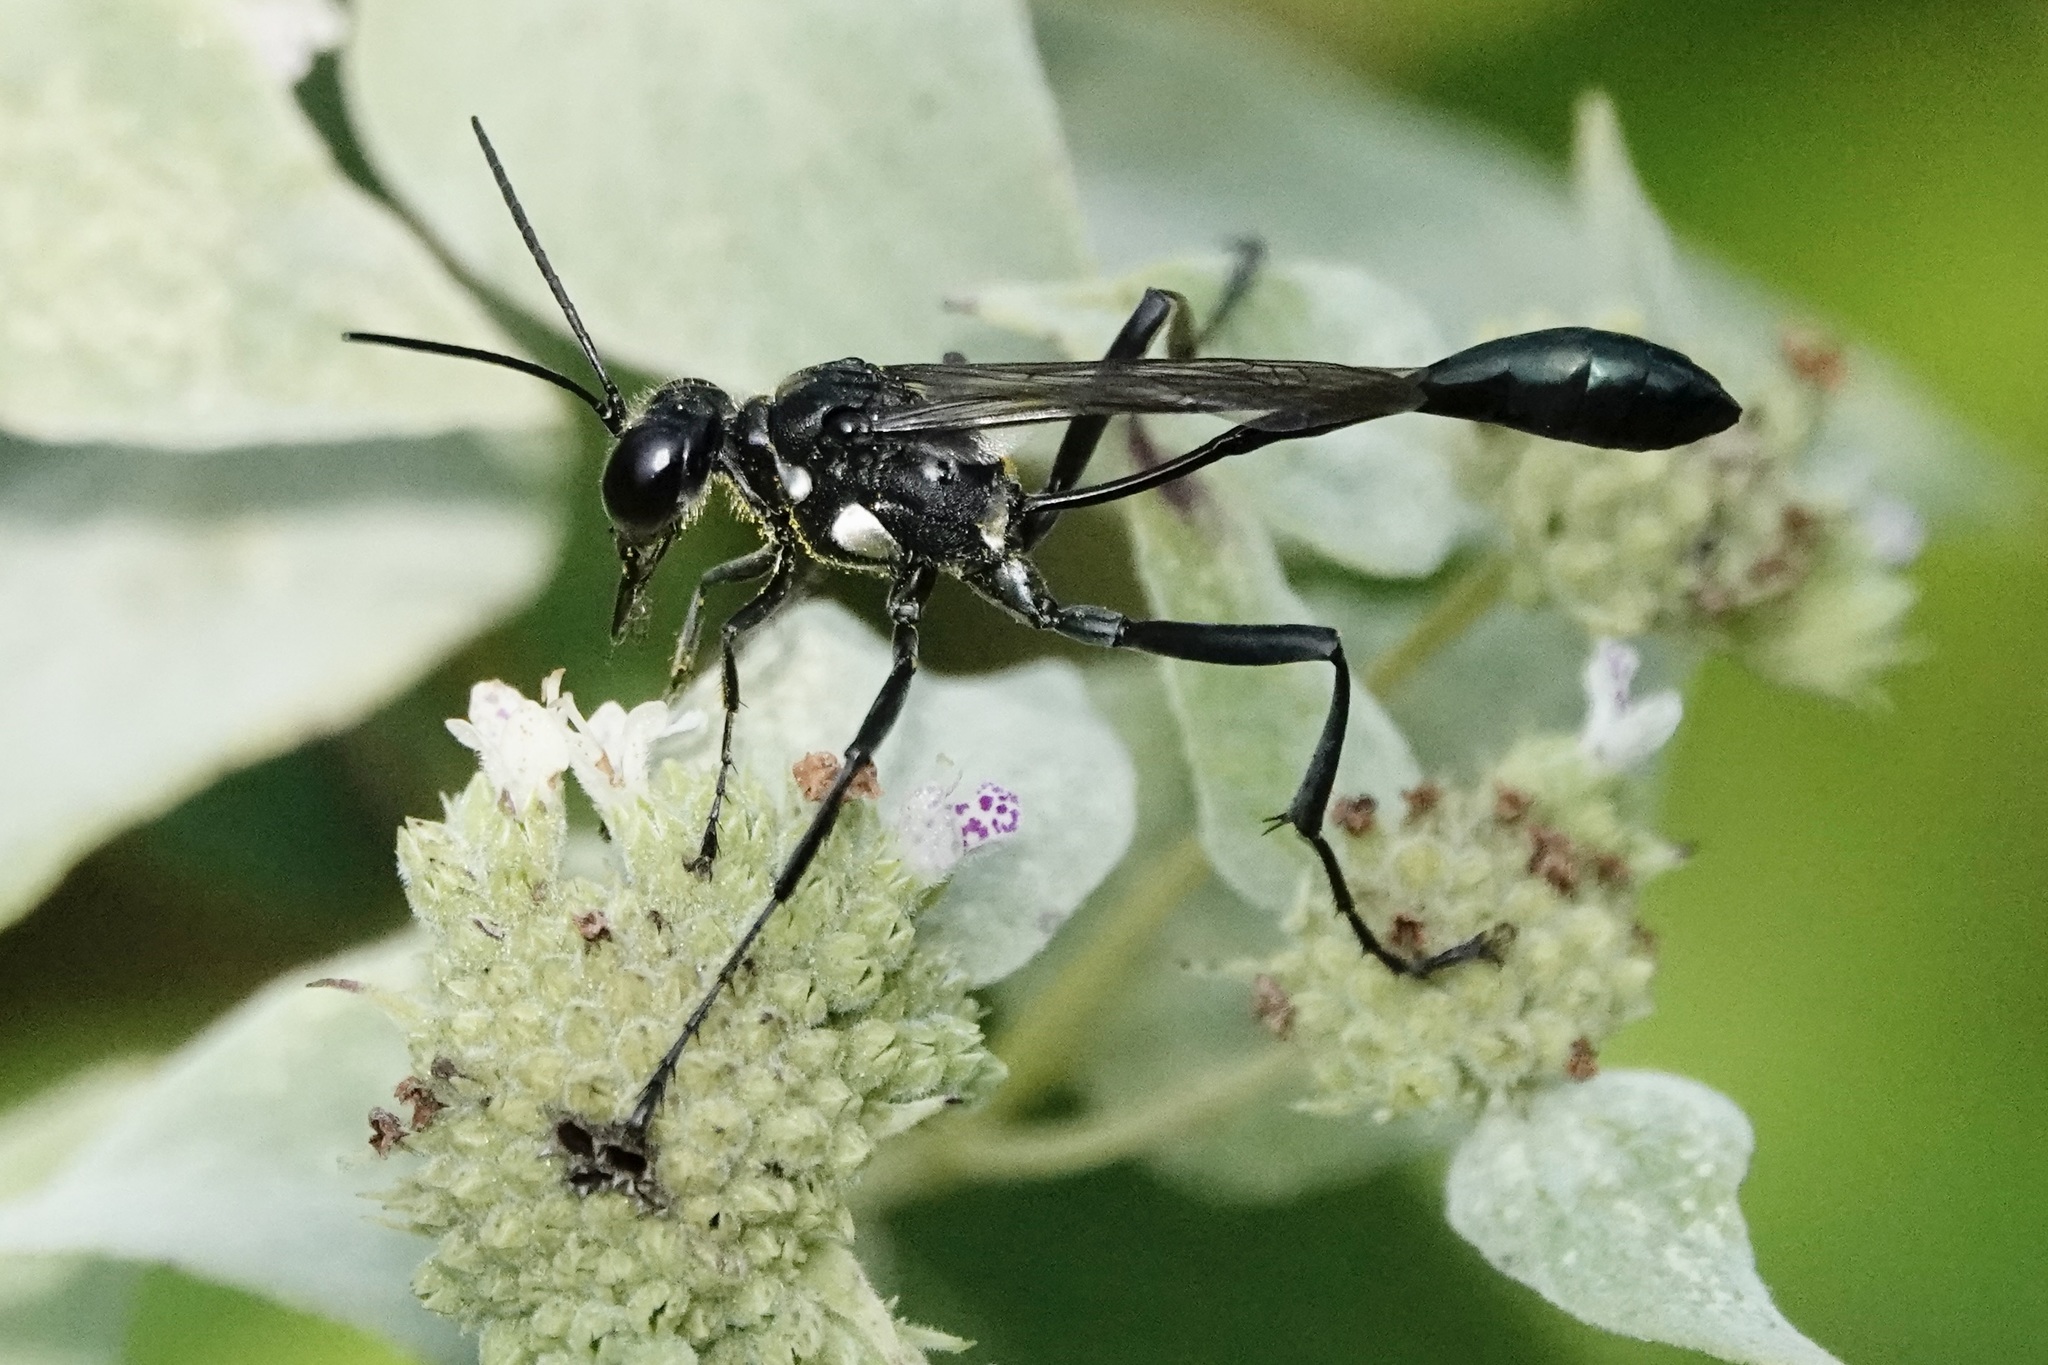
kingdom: Animalia
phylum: Arthropoda
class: Insecta
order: Hymenoptera
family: Sphecidae
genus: Eremnophila
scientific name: Eremnophila aureonotata
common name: Gold-marked thread-waisted wasp
